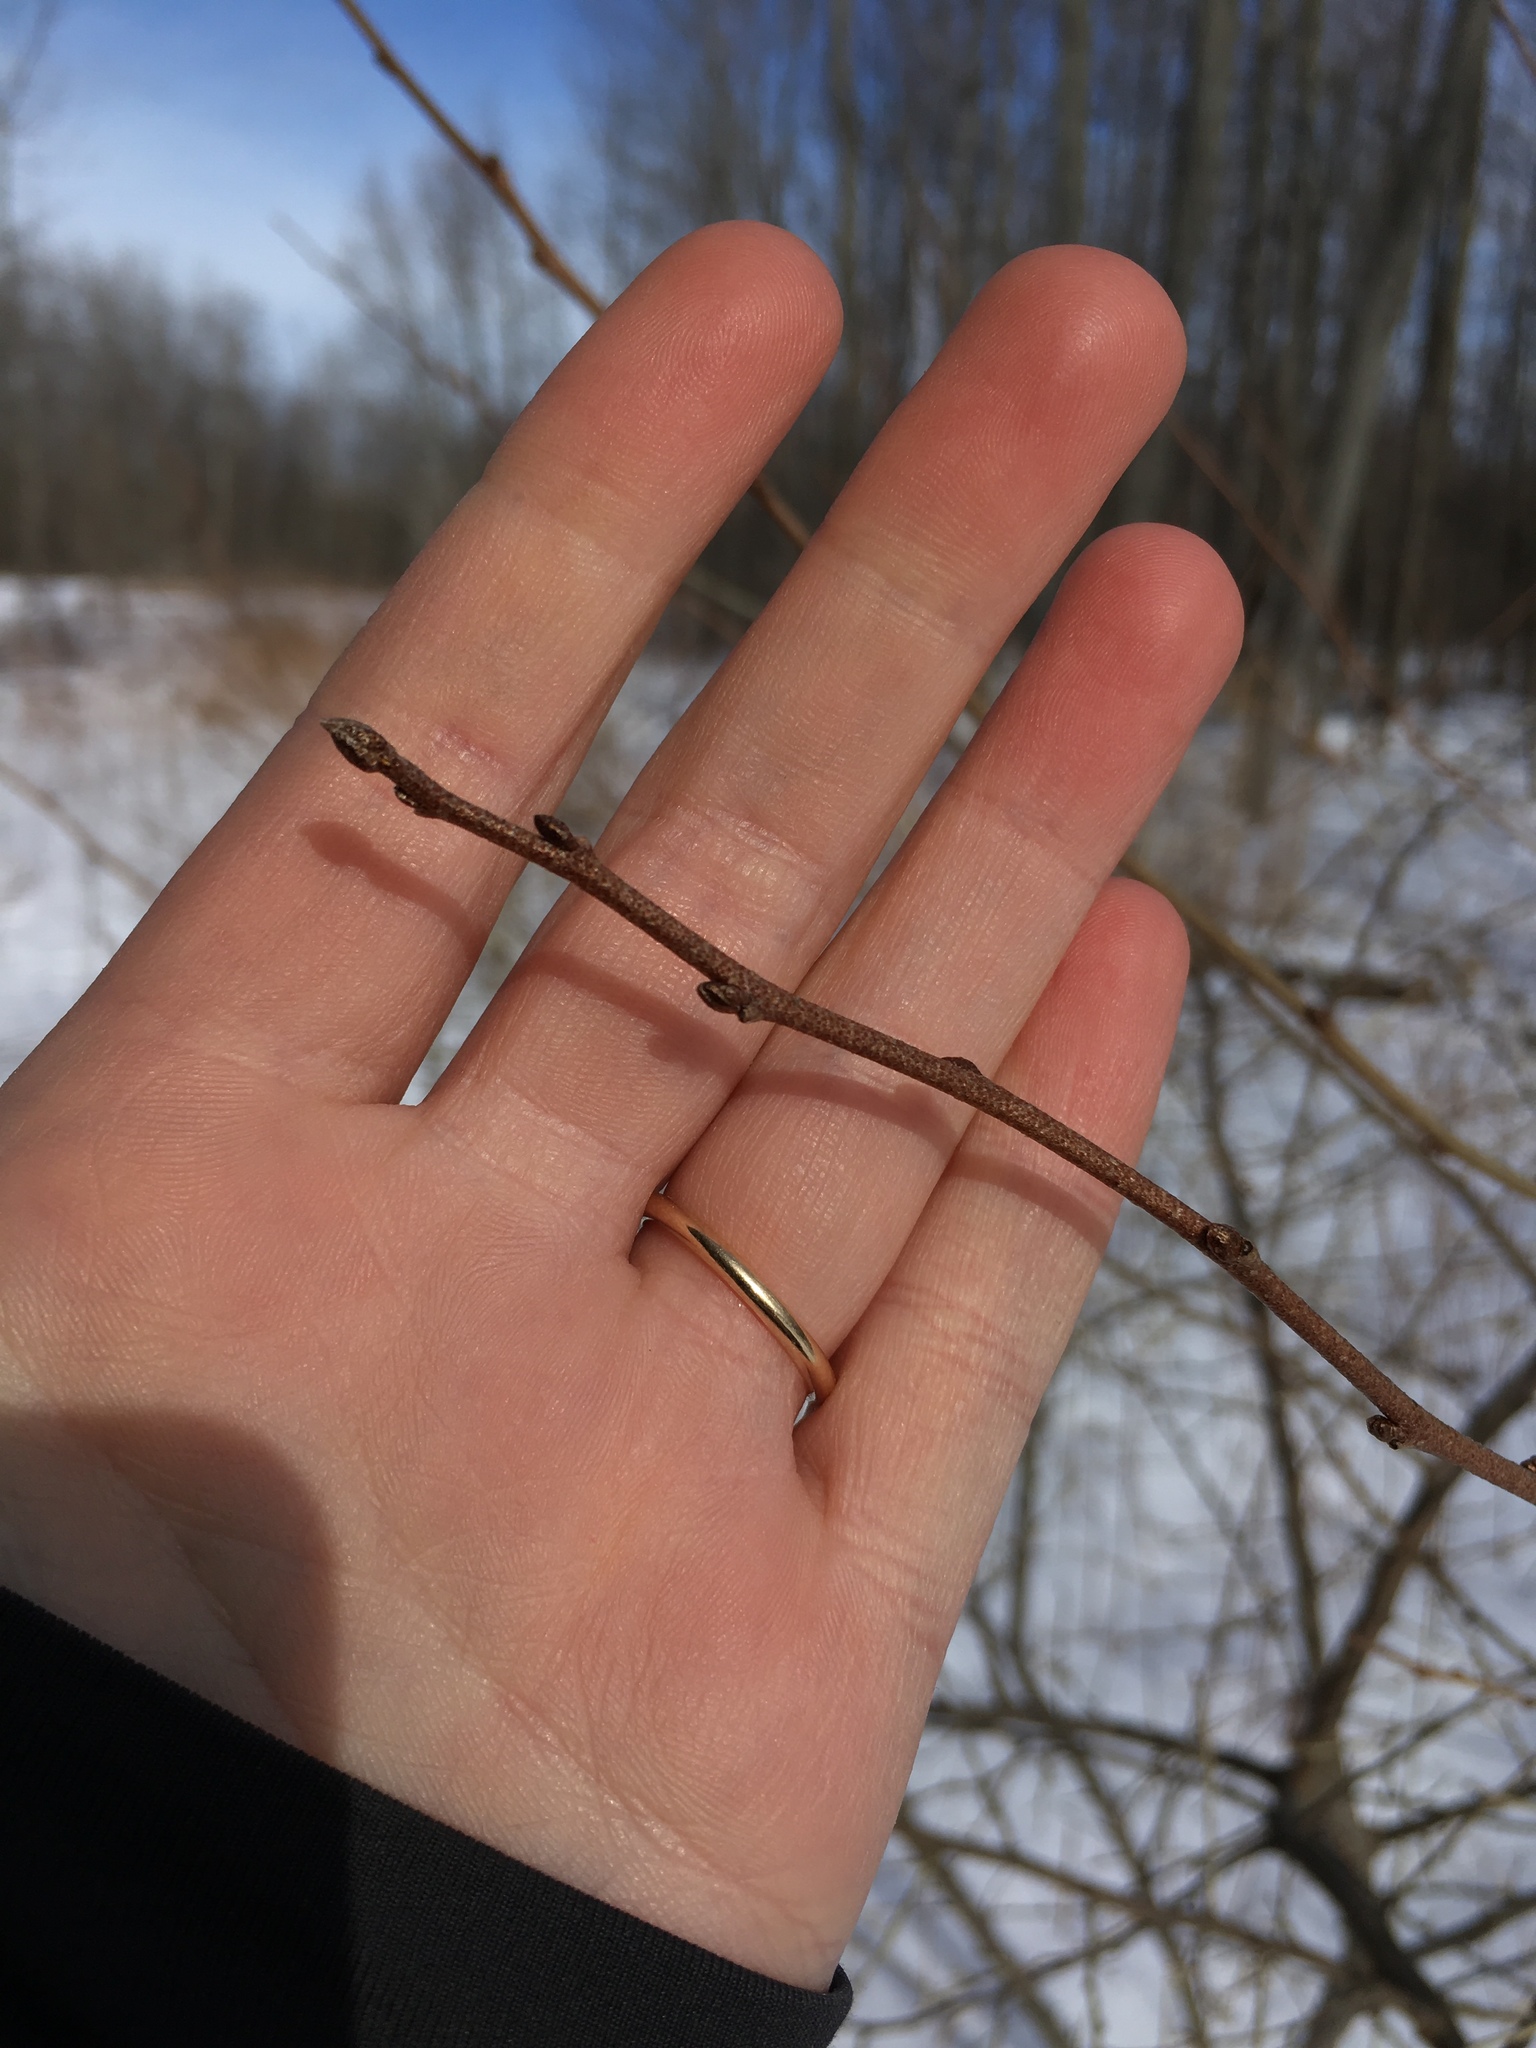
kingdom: Plantae
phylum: Tracheophyta
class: Magnoliopsida
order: Rosales
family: Elaeagnaceae
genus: Elaeagnus
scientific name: Elaeagnus umbellata
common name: Autumn olive
